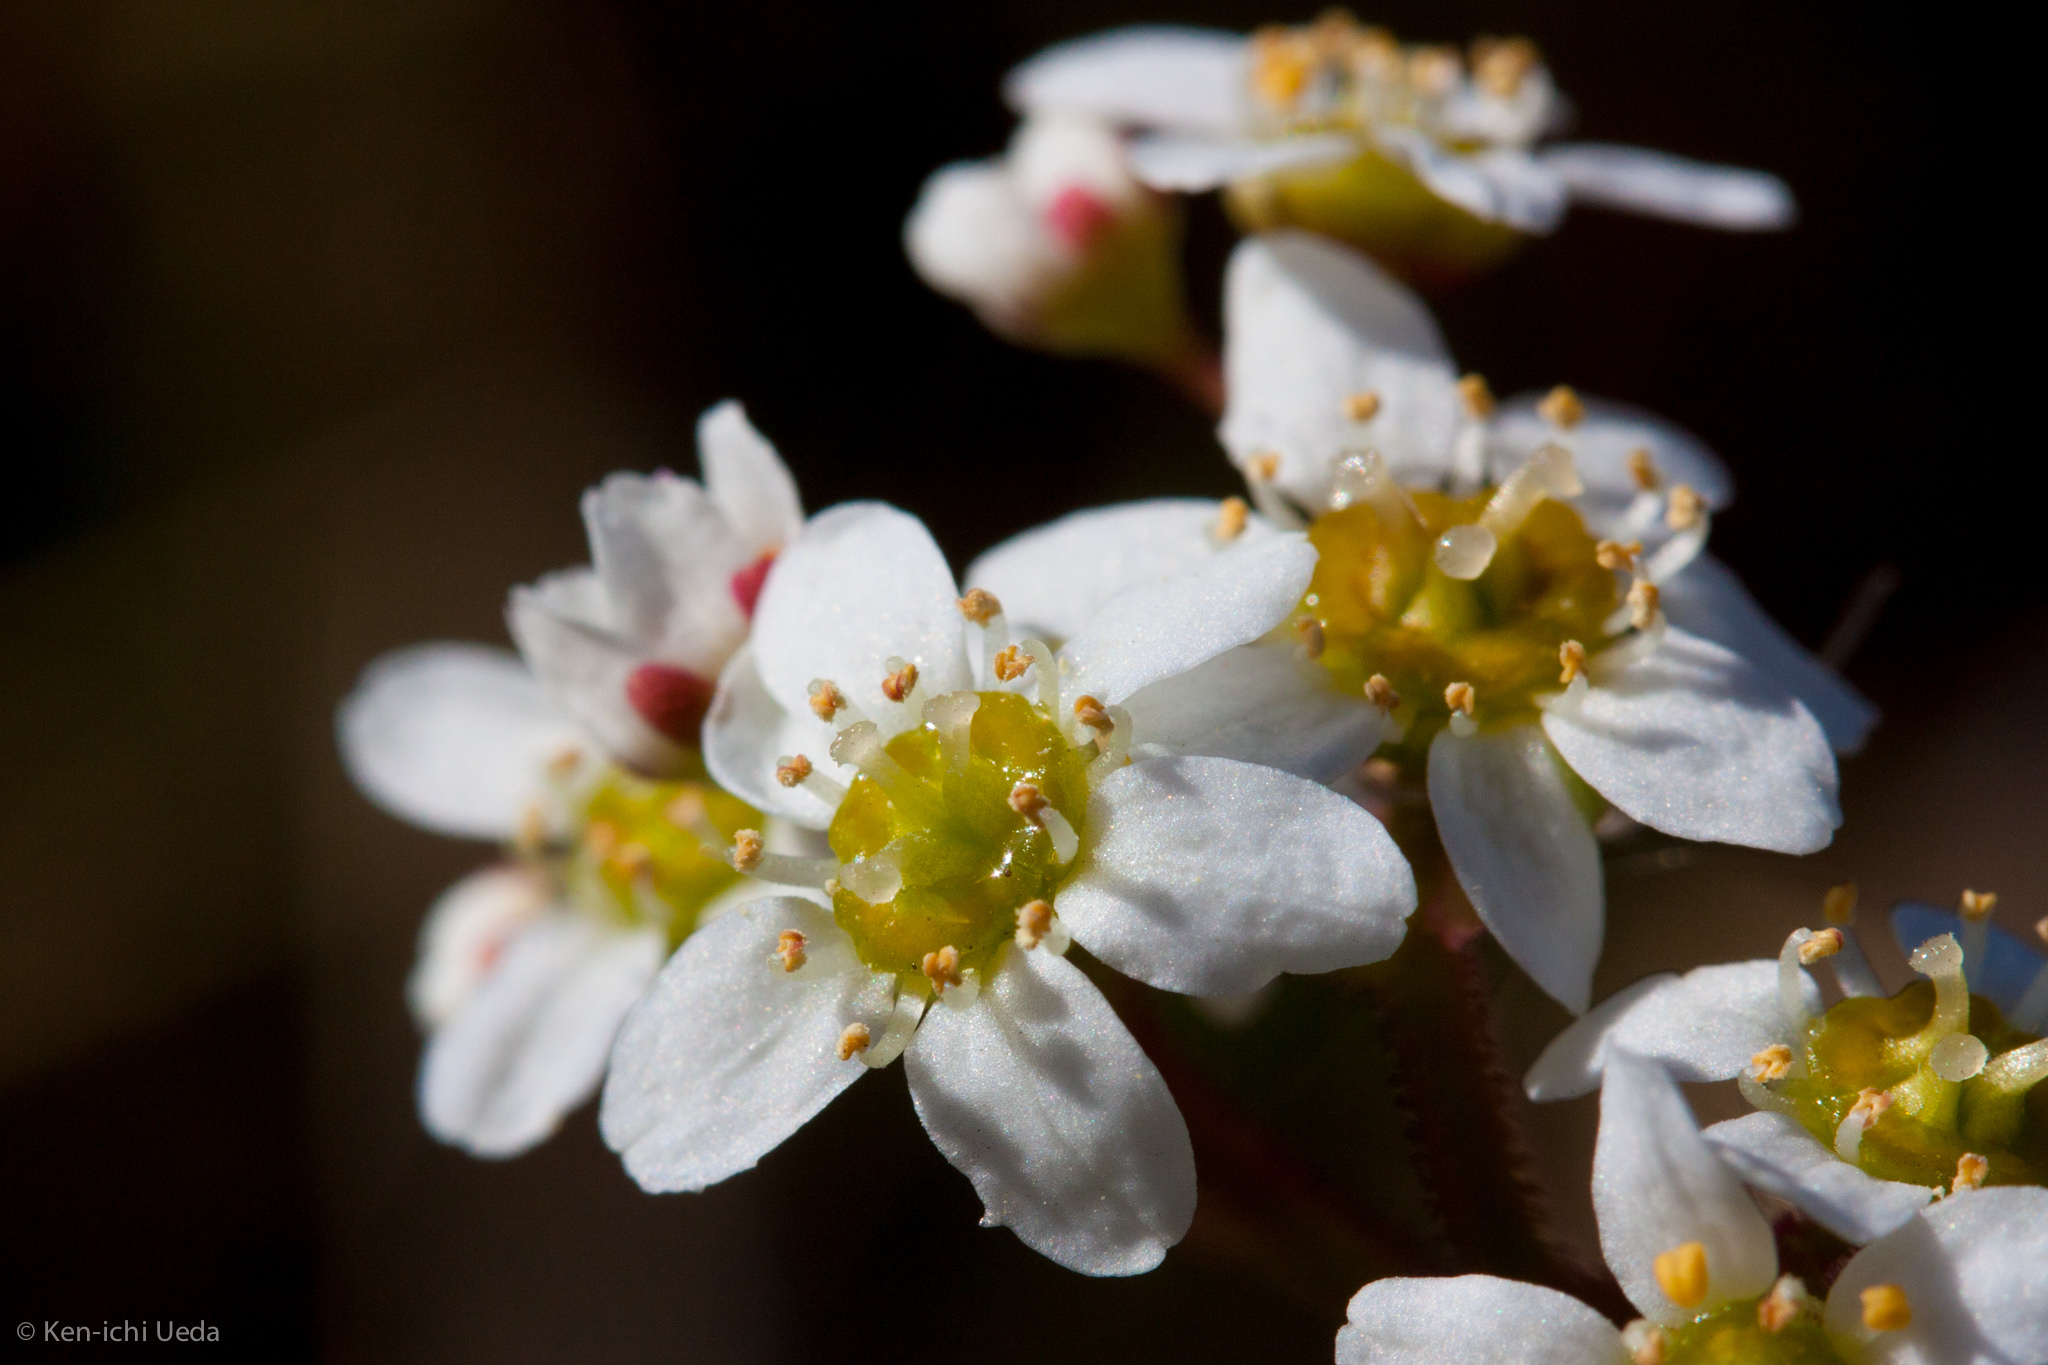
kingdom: Plantae
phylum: Tracheophyta
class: Magnoliopsida
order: Saxifragales
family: Saxifragaceae
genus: Micranthes
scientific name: Micranthes californica
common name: California saxifrage
